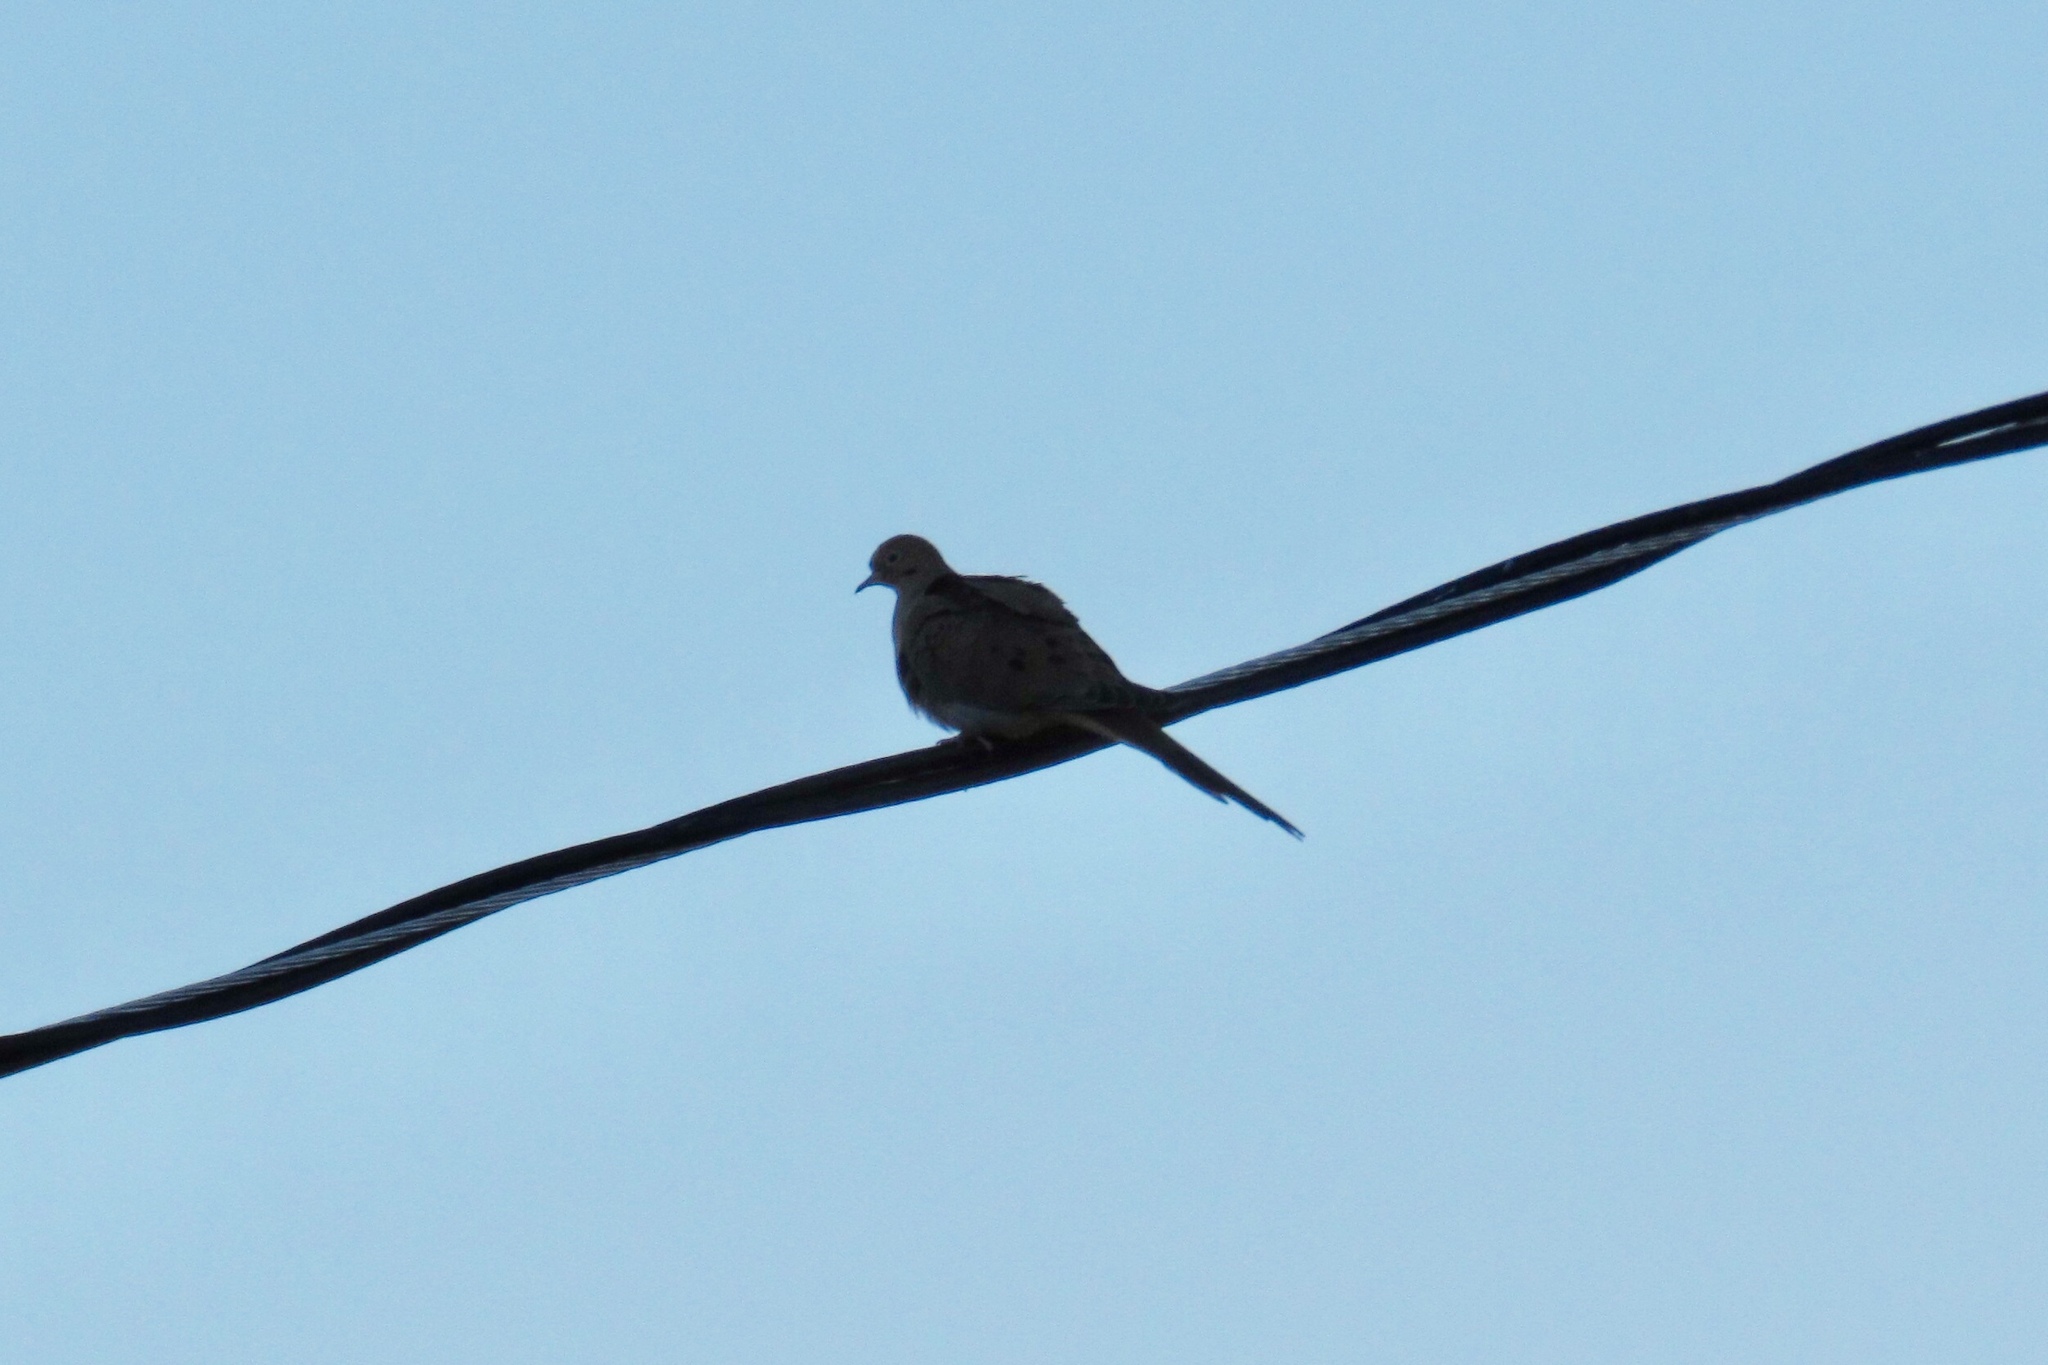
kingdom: Animalia
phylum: Chordata
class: Aves
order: Columbiformes
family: Columbidae
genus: Zenaida
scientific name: Zenaida macroura
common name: Mourning dove
